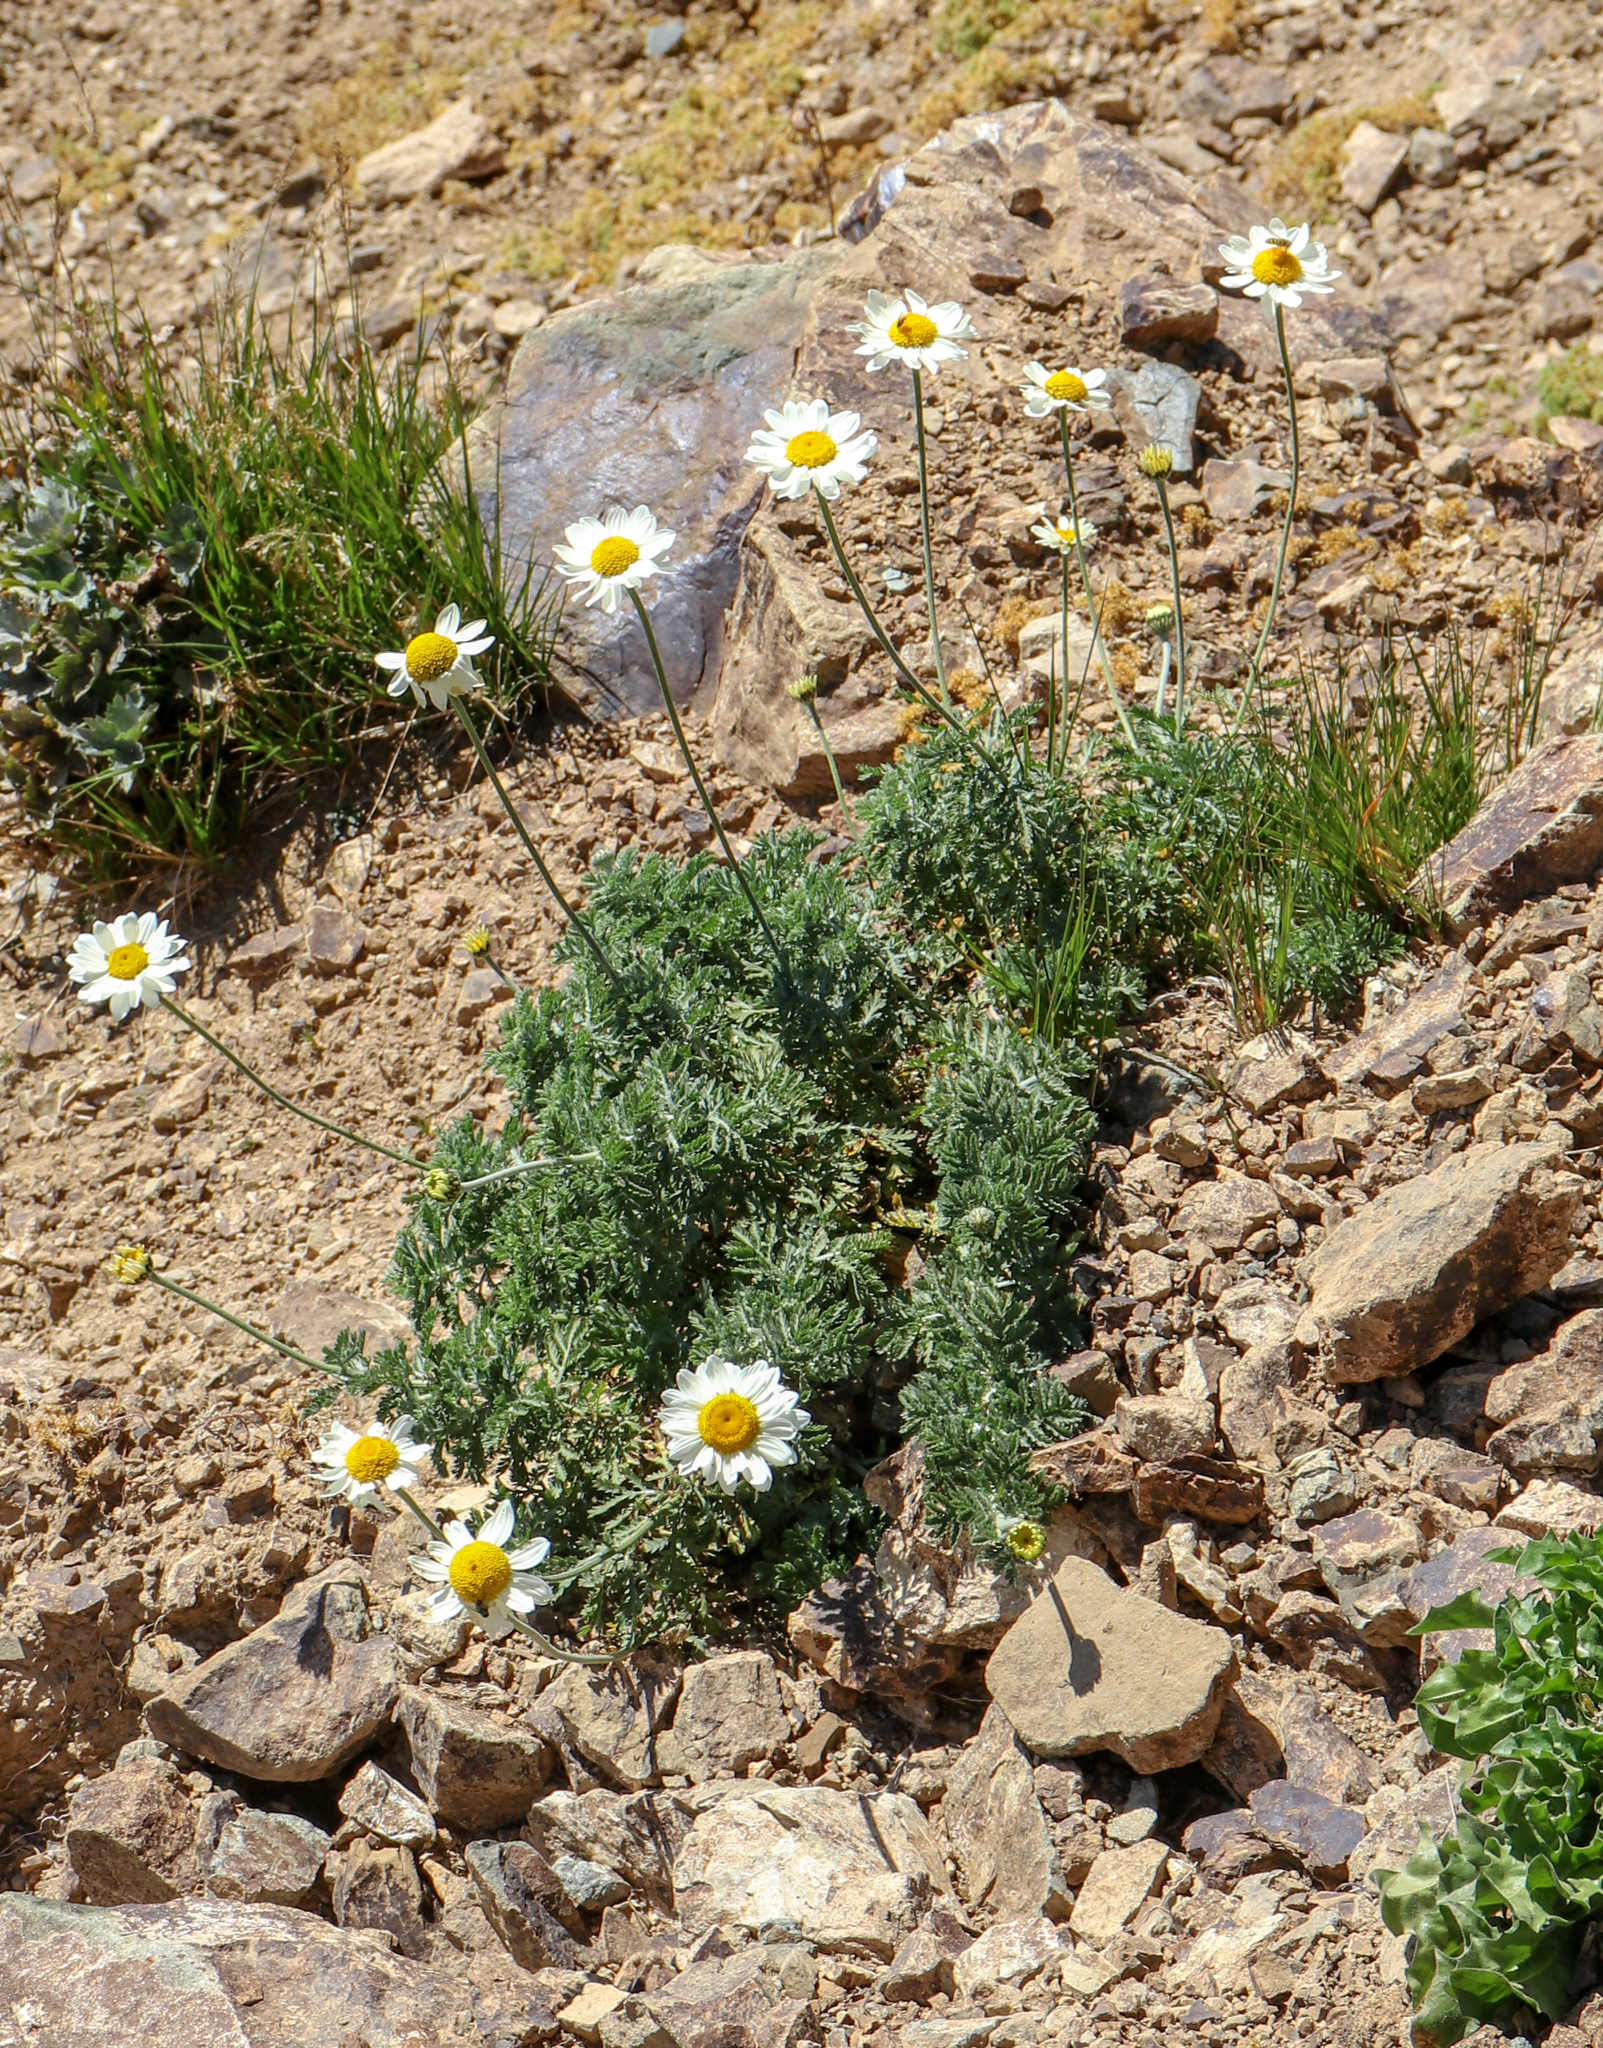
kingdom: Plantae
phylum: Tracheophyta
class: Magnoliopsida
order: Asterales
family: Asteraceae
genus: Cota
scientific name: Cota melanoloma
